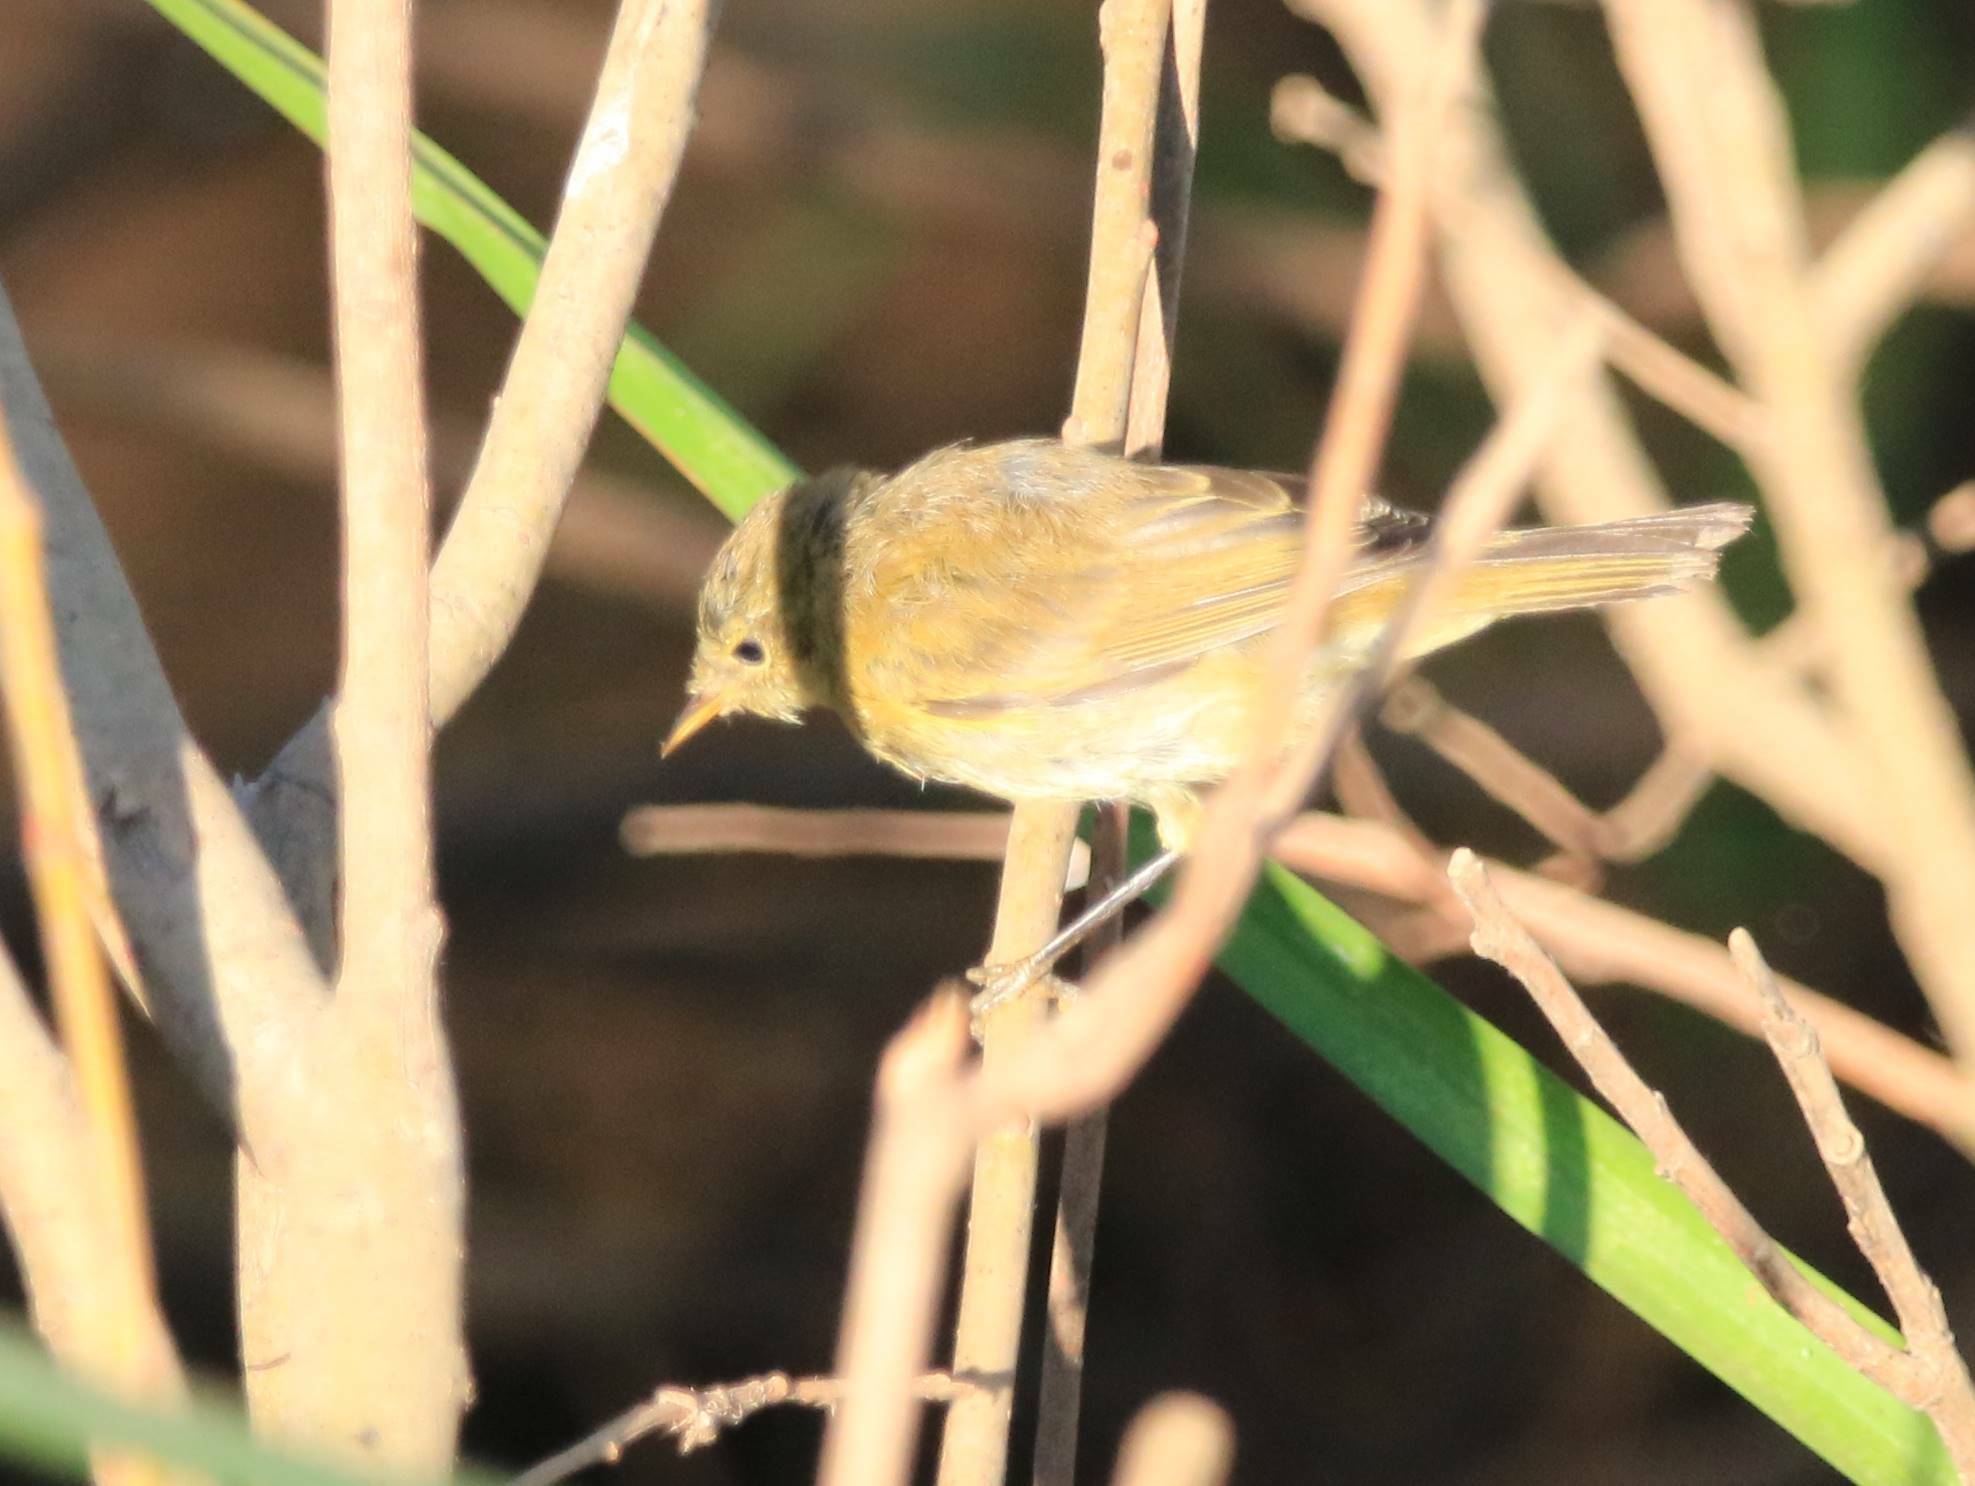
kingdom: Animalia
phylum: Chordata
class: Aves
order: Passeriformes
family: Phylloscopidae
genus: Phylloscopus
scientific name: Phylloscopus collybita
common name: Common chiffchaff
